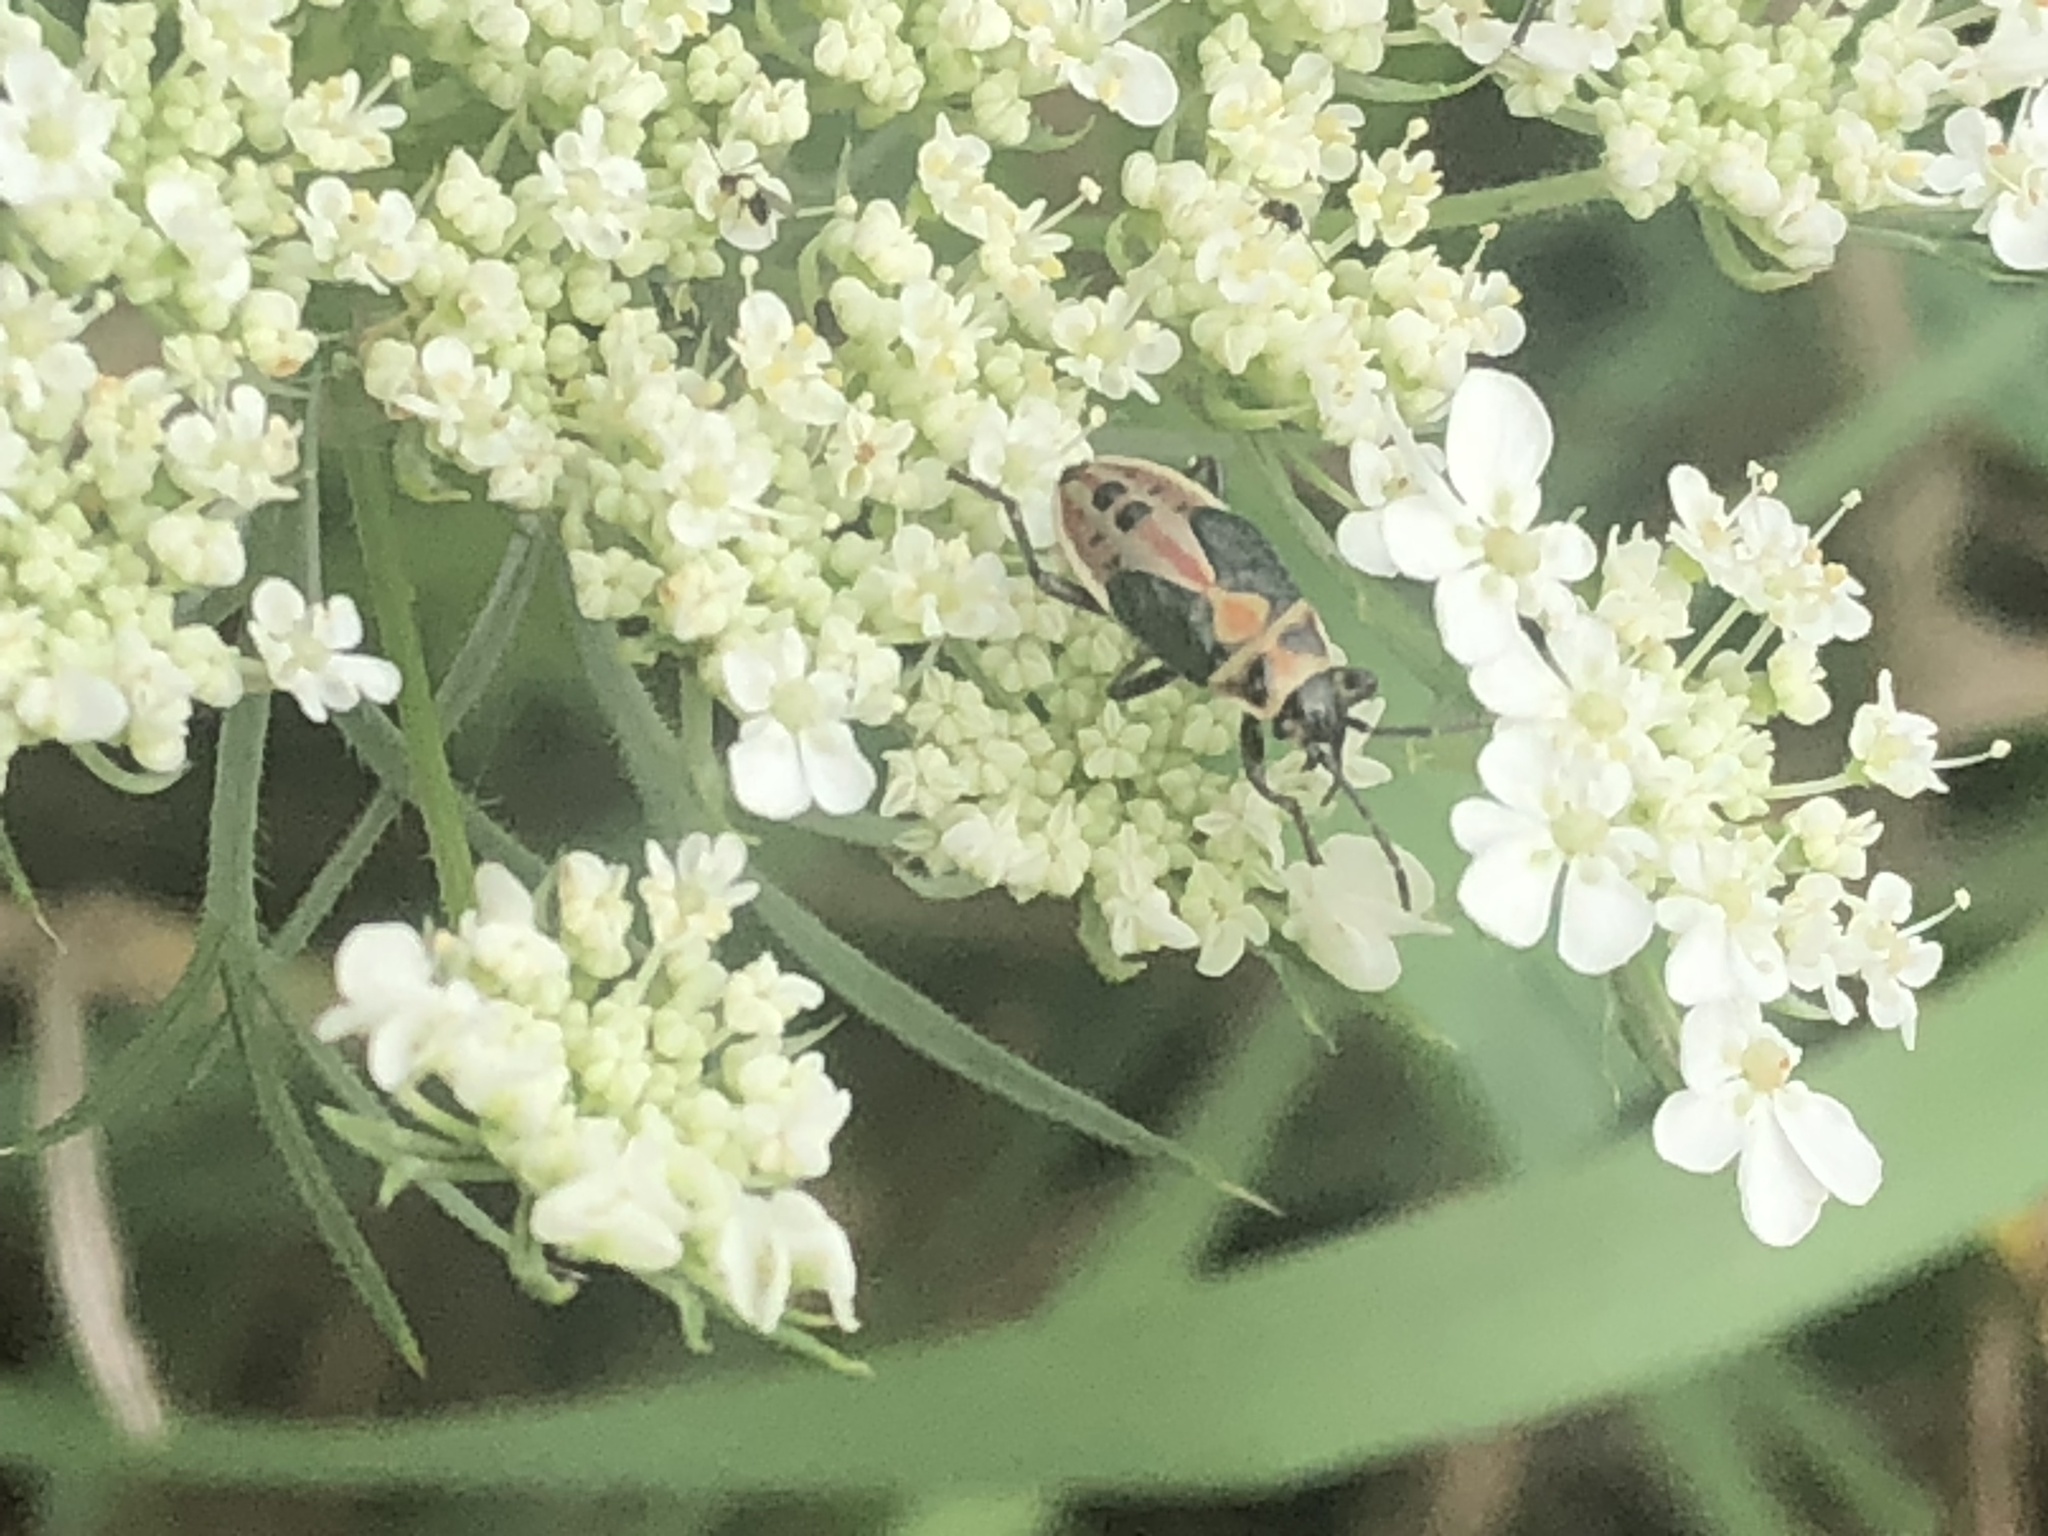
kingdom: Animalia
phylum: Arthropoda
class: Insecta
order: Hemiptera
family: Lygaeidae
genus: Lygaeus
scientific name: Lygaeus kalmii
